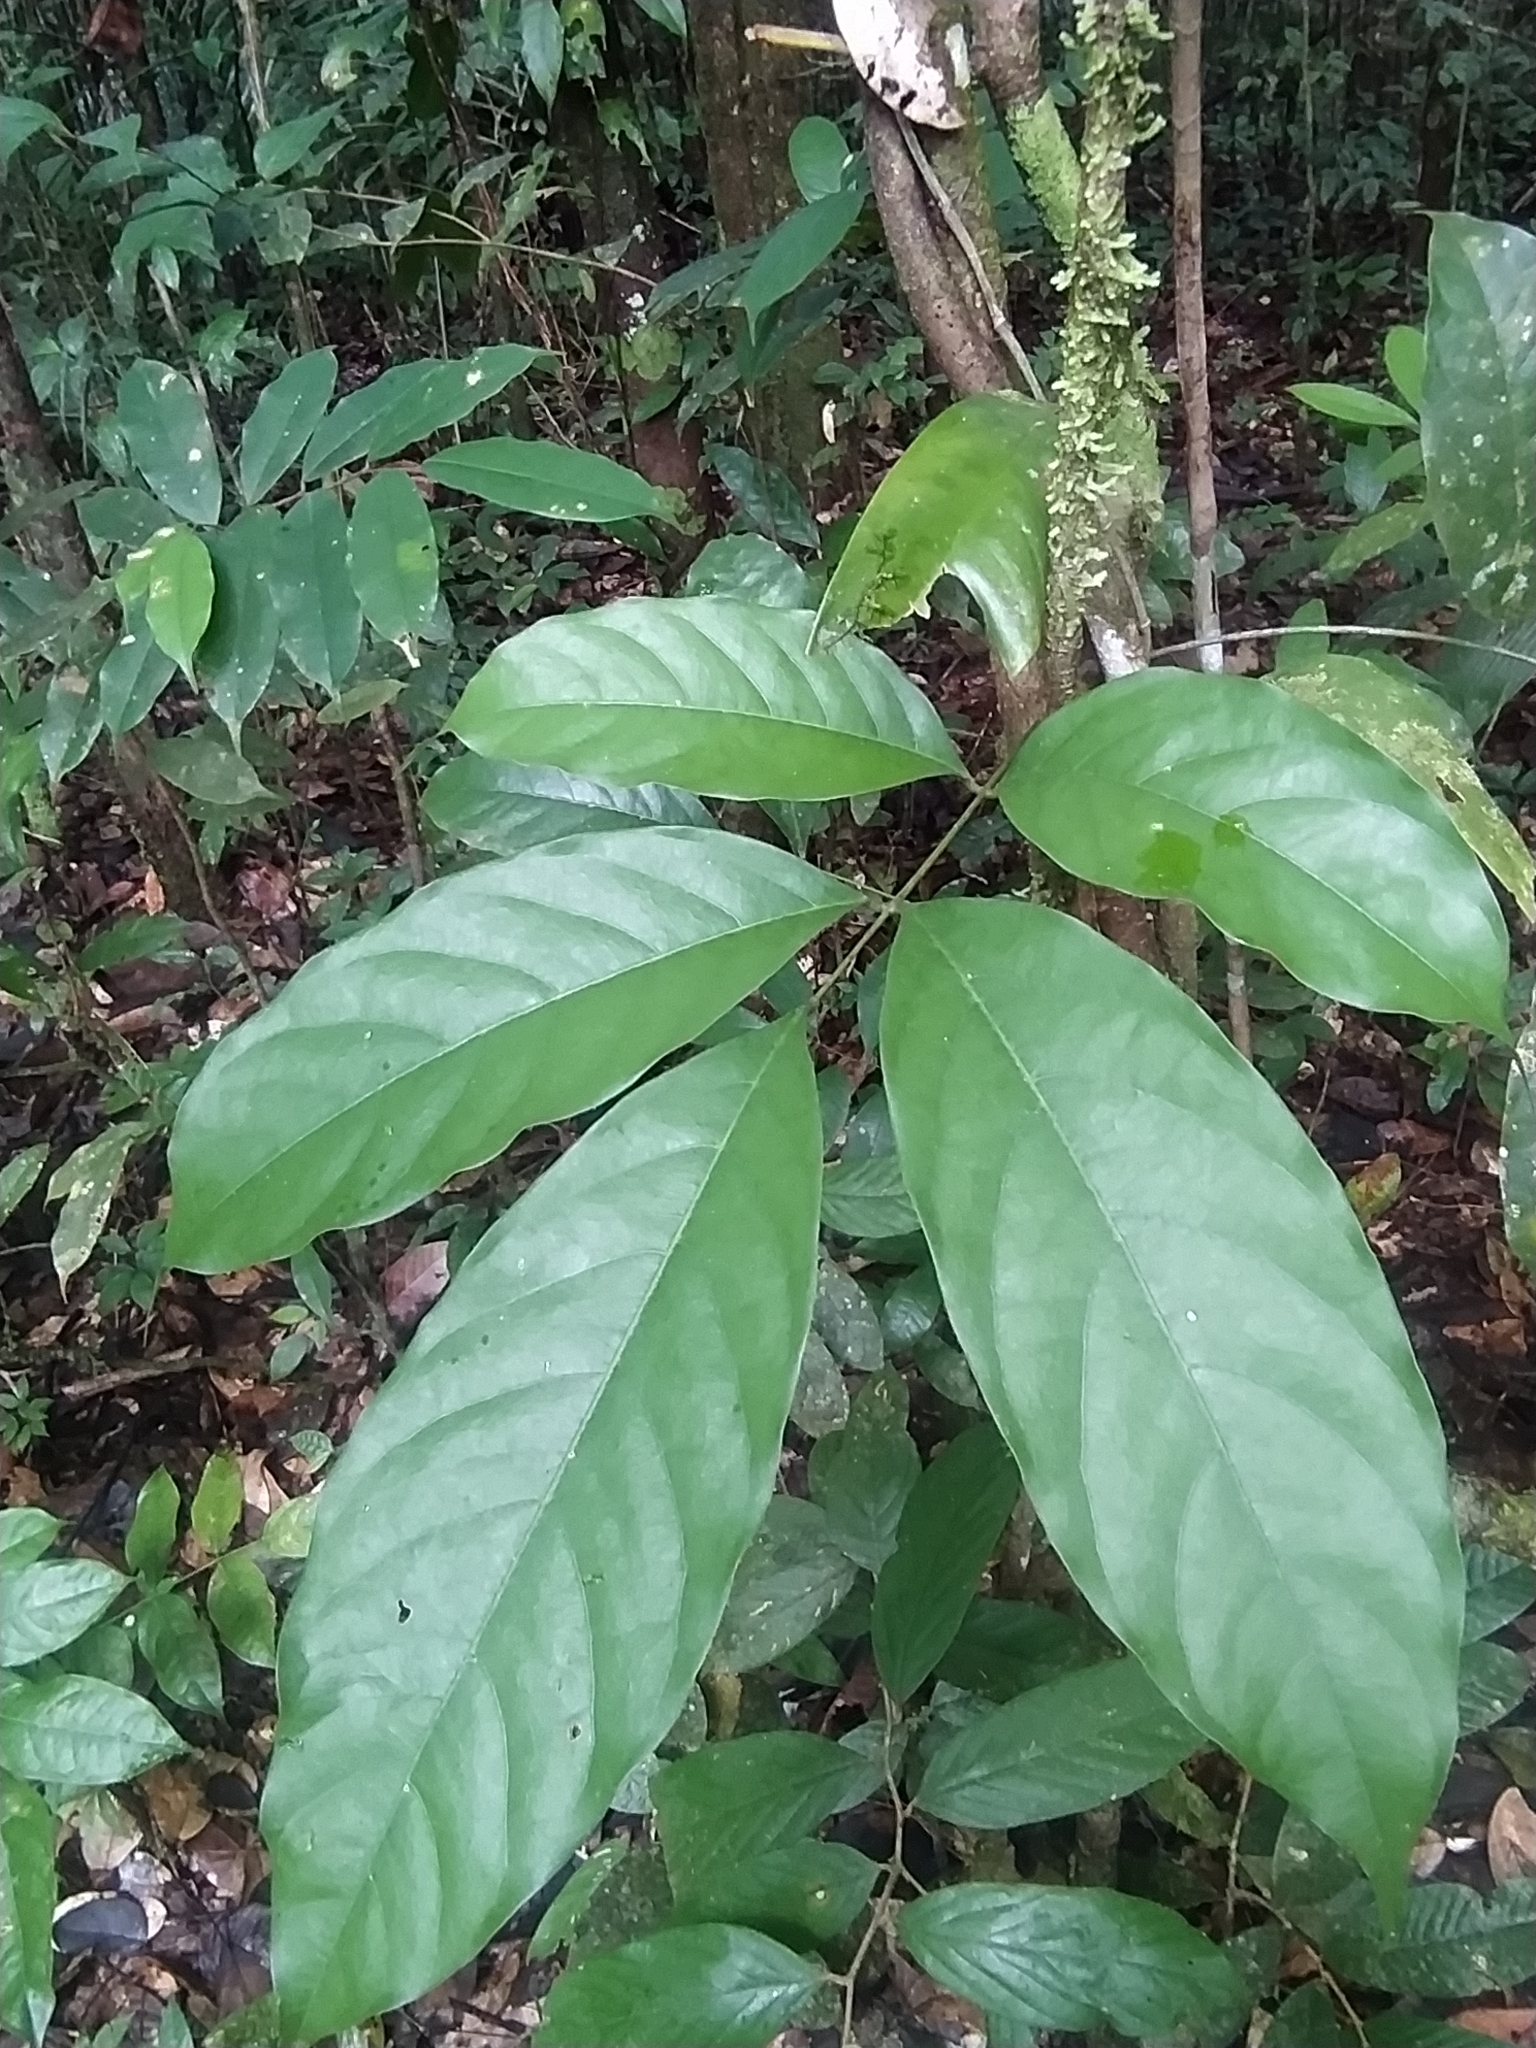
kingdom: Plantae
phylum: Tracheophyta
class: Magnoliopsida
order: Malpighiales
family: Violaceae
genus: Paypayrola
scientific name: Paypayrola
